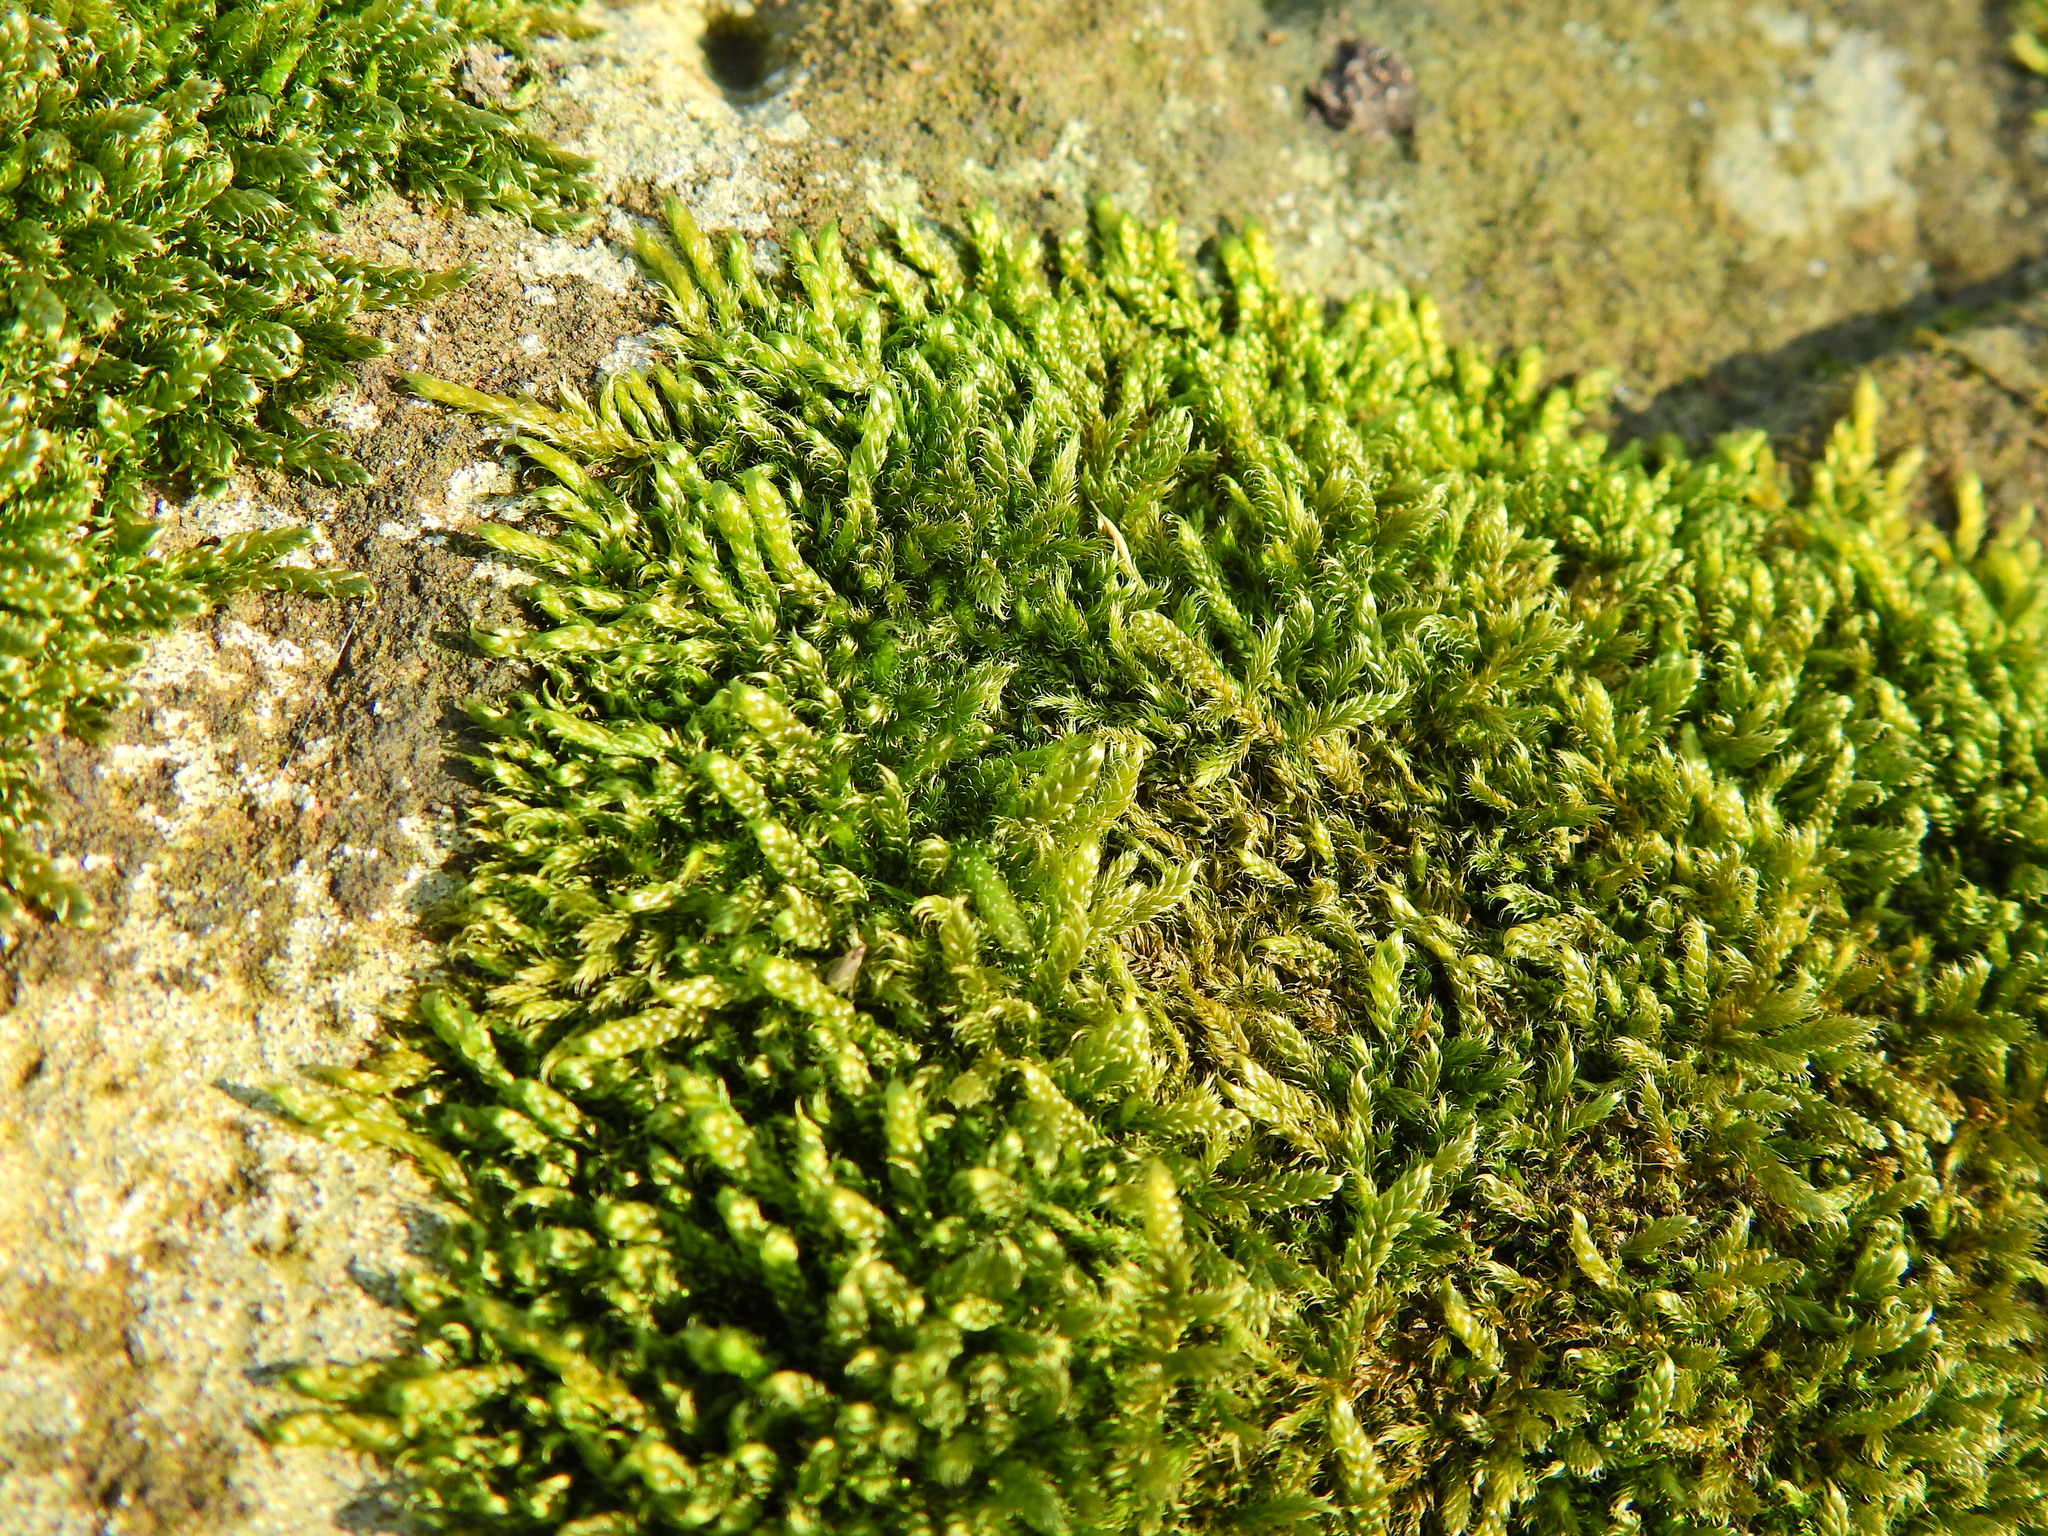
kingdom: Plantae
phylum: Bryophyta
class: Bryopsida
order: Hypnales
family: Hypnaceae
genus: Hypnum
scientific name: Hypnum cupressiforme
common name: Cypress-leaved plait-moss
